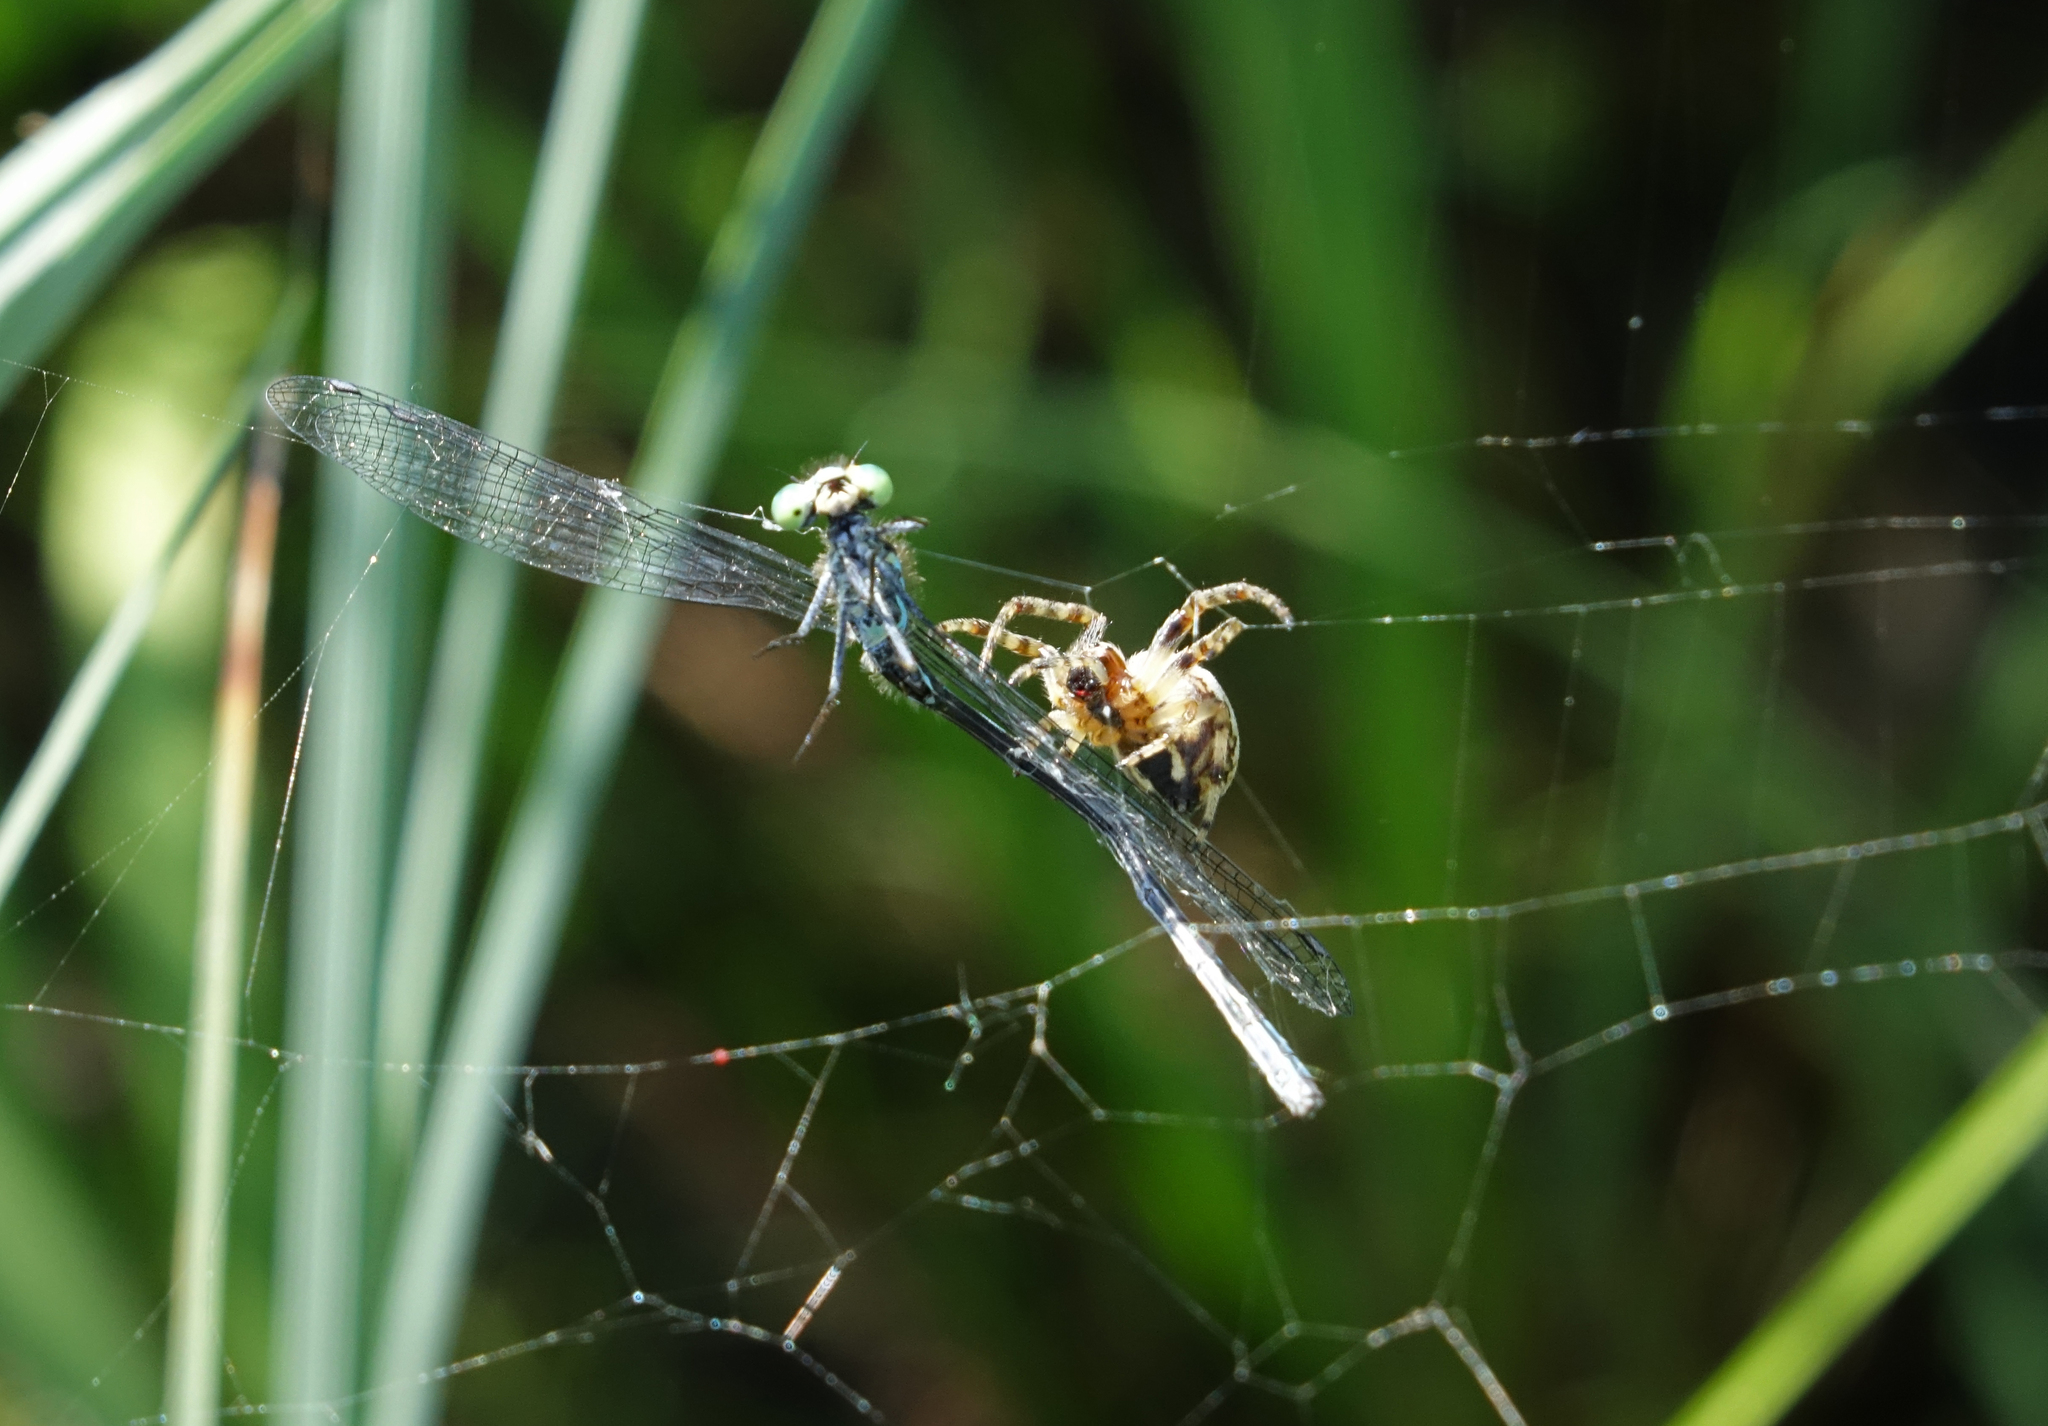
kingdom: Animalia
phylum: Arthropoda
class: Insecta
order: Odonata
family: Coenagrionidae
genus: Coenagrion
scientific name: Coenagrion hylas
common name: Frey's damselfly
